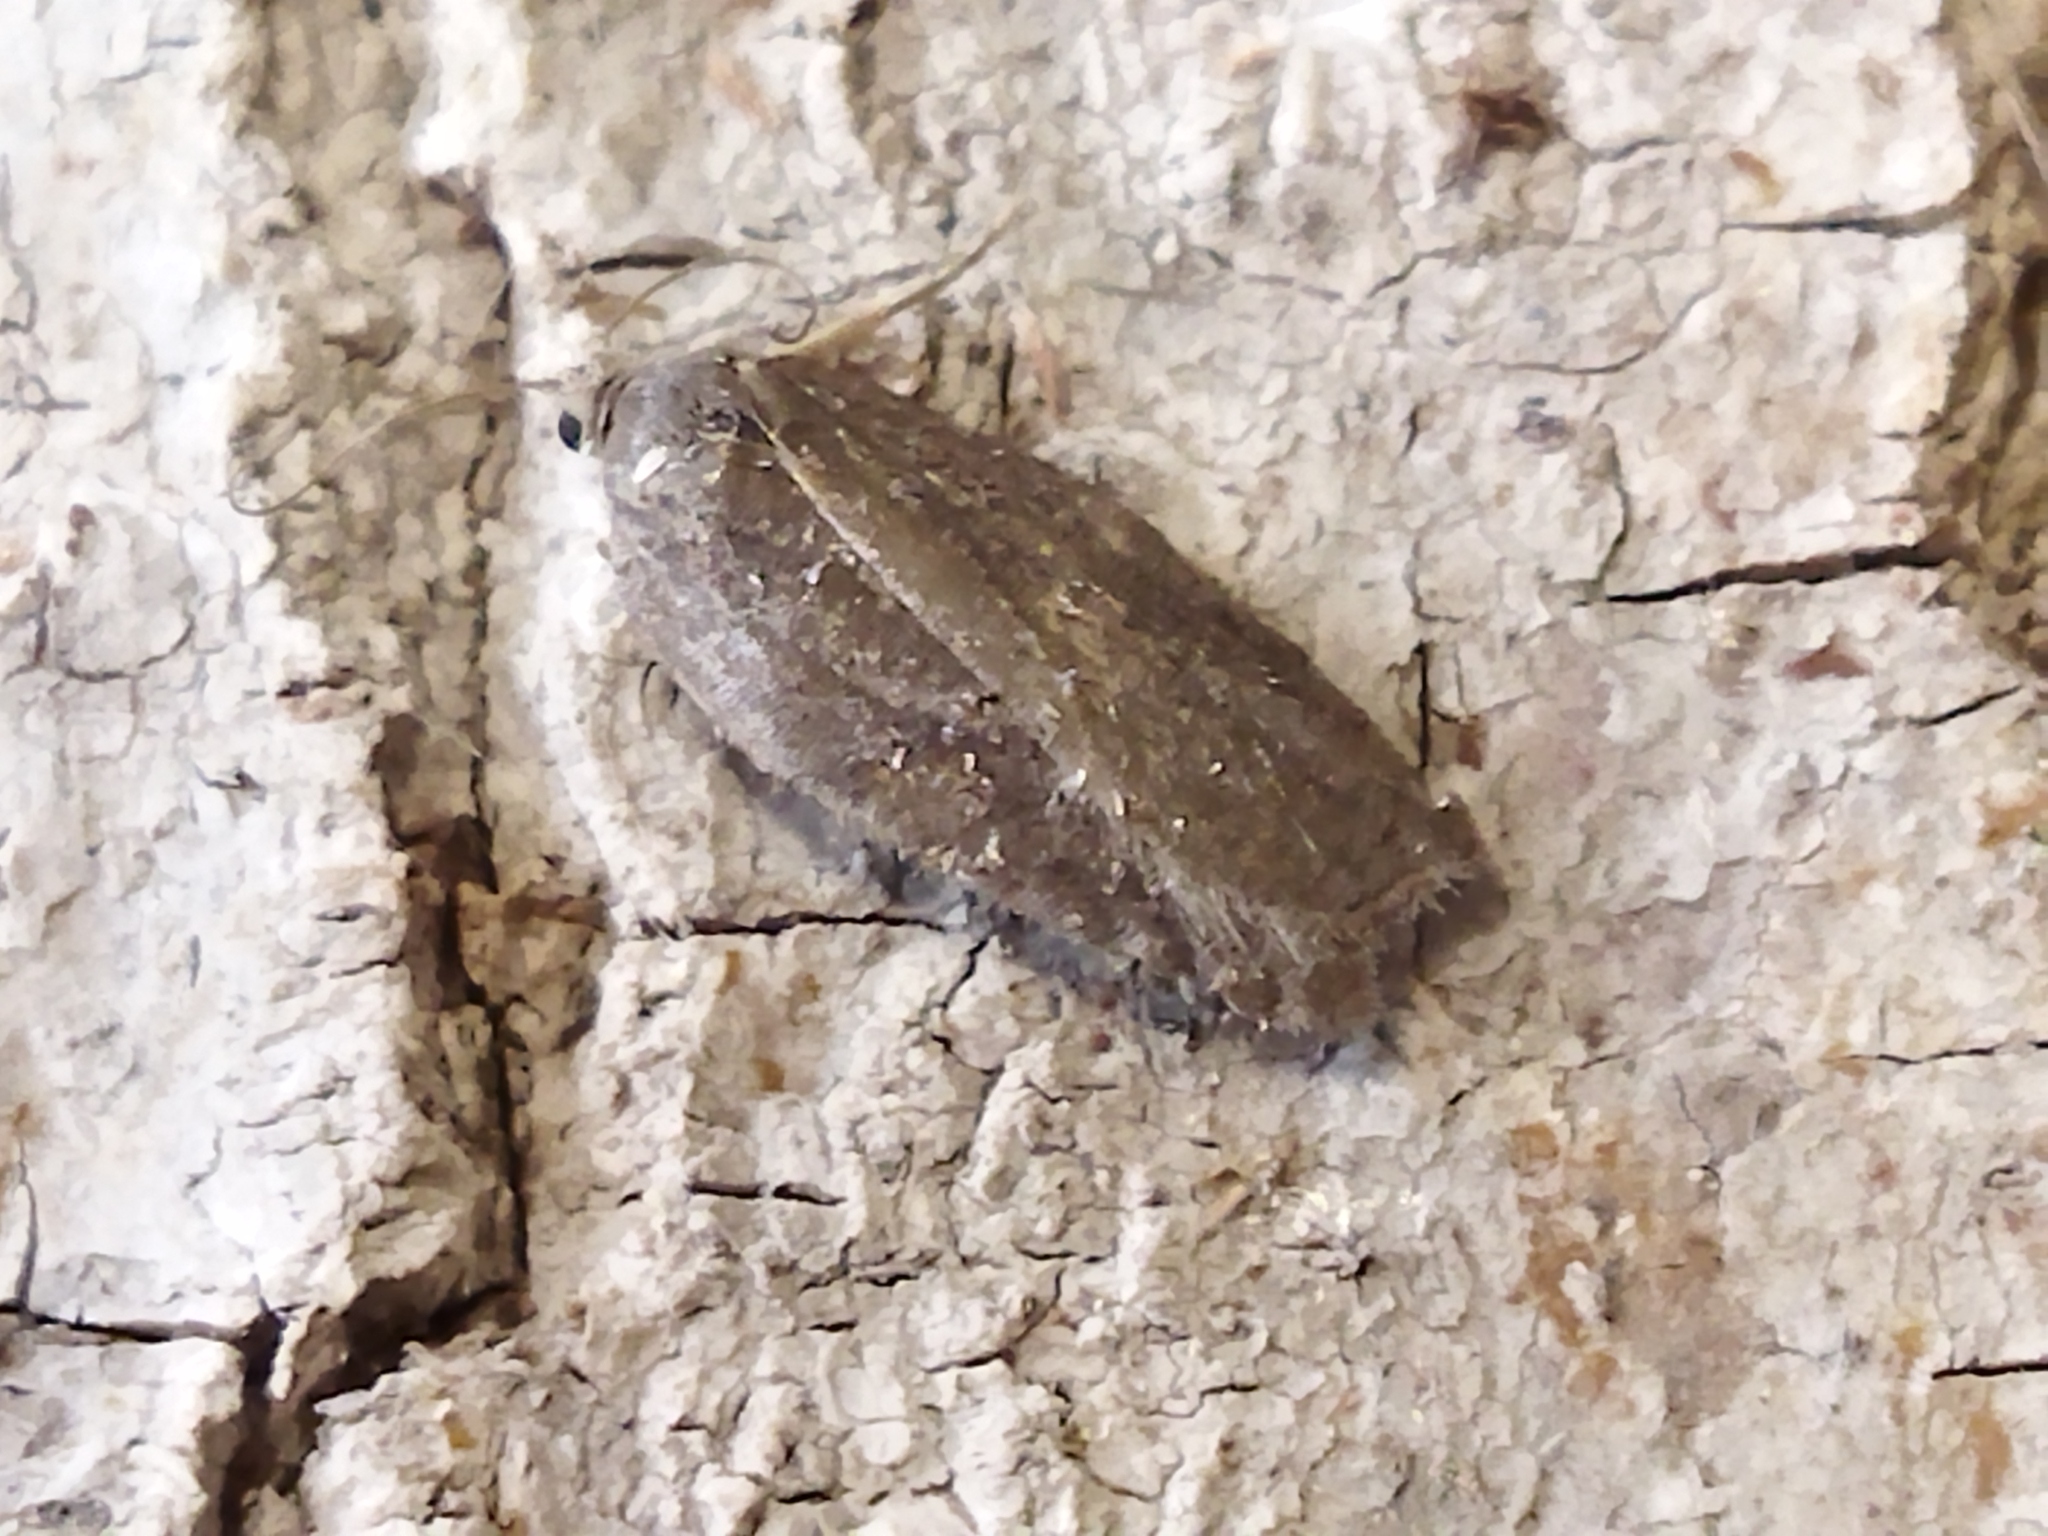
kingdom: Animalia
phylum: Arthropoda
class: Insecta
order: Lepidoptera
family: Tortricidae
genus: Acleris
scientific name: Acleris sparsana
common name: Ashy button
